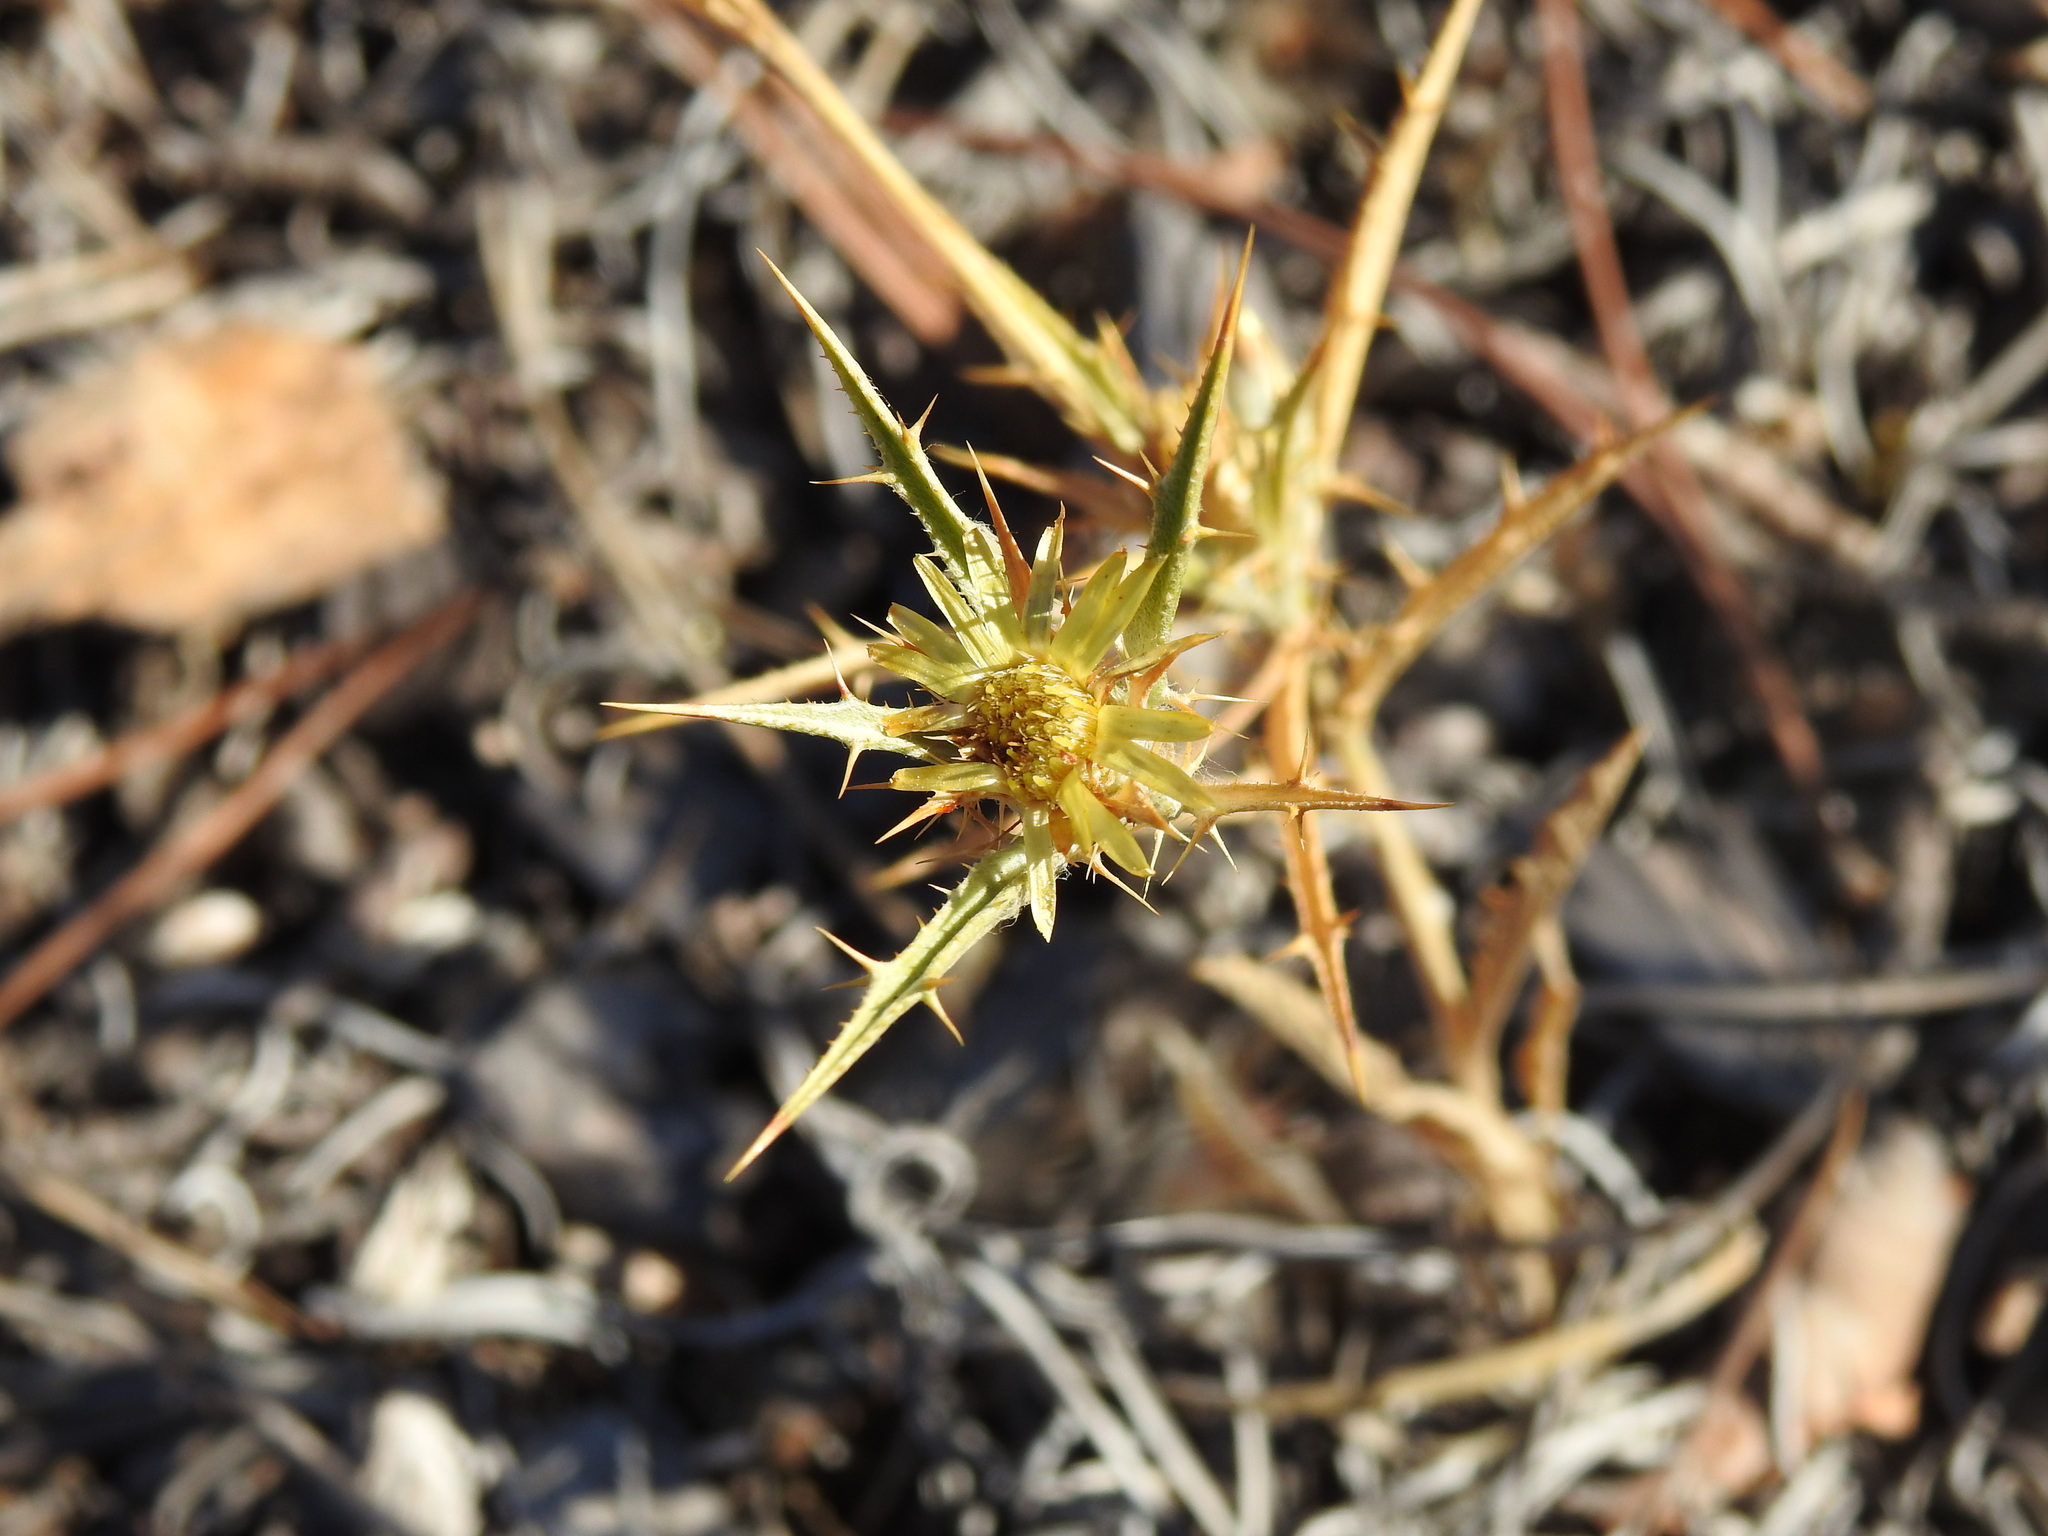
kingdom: Plantae
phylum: Tracheophyta
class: Magnoliopsida
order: Asterales
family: Asteraceae
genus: Carlina
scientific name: Carlina racemosa
